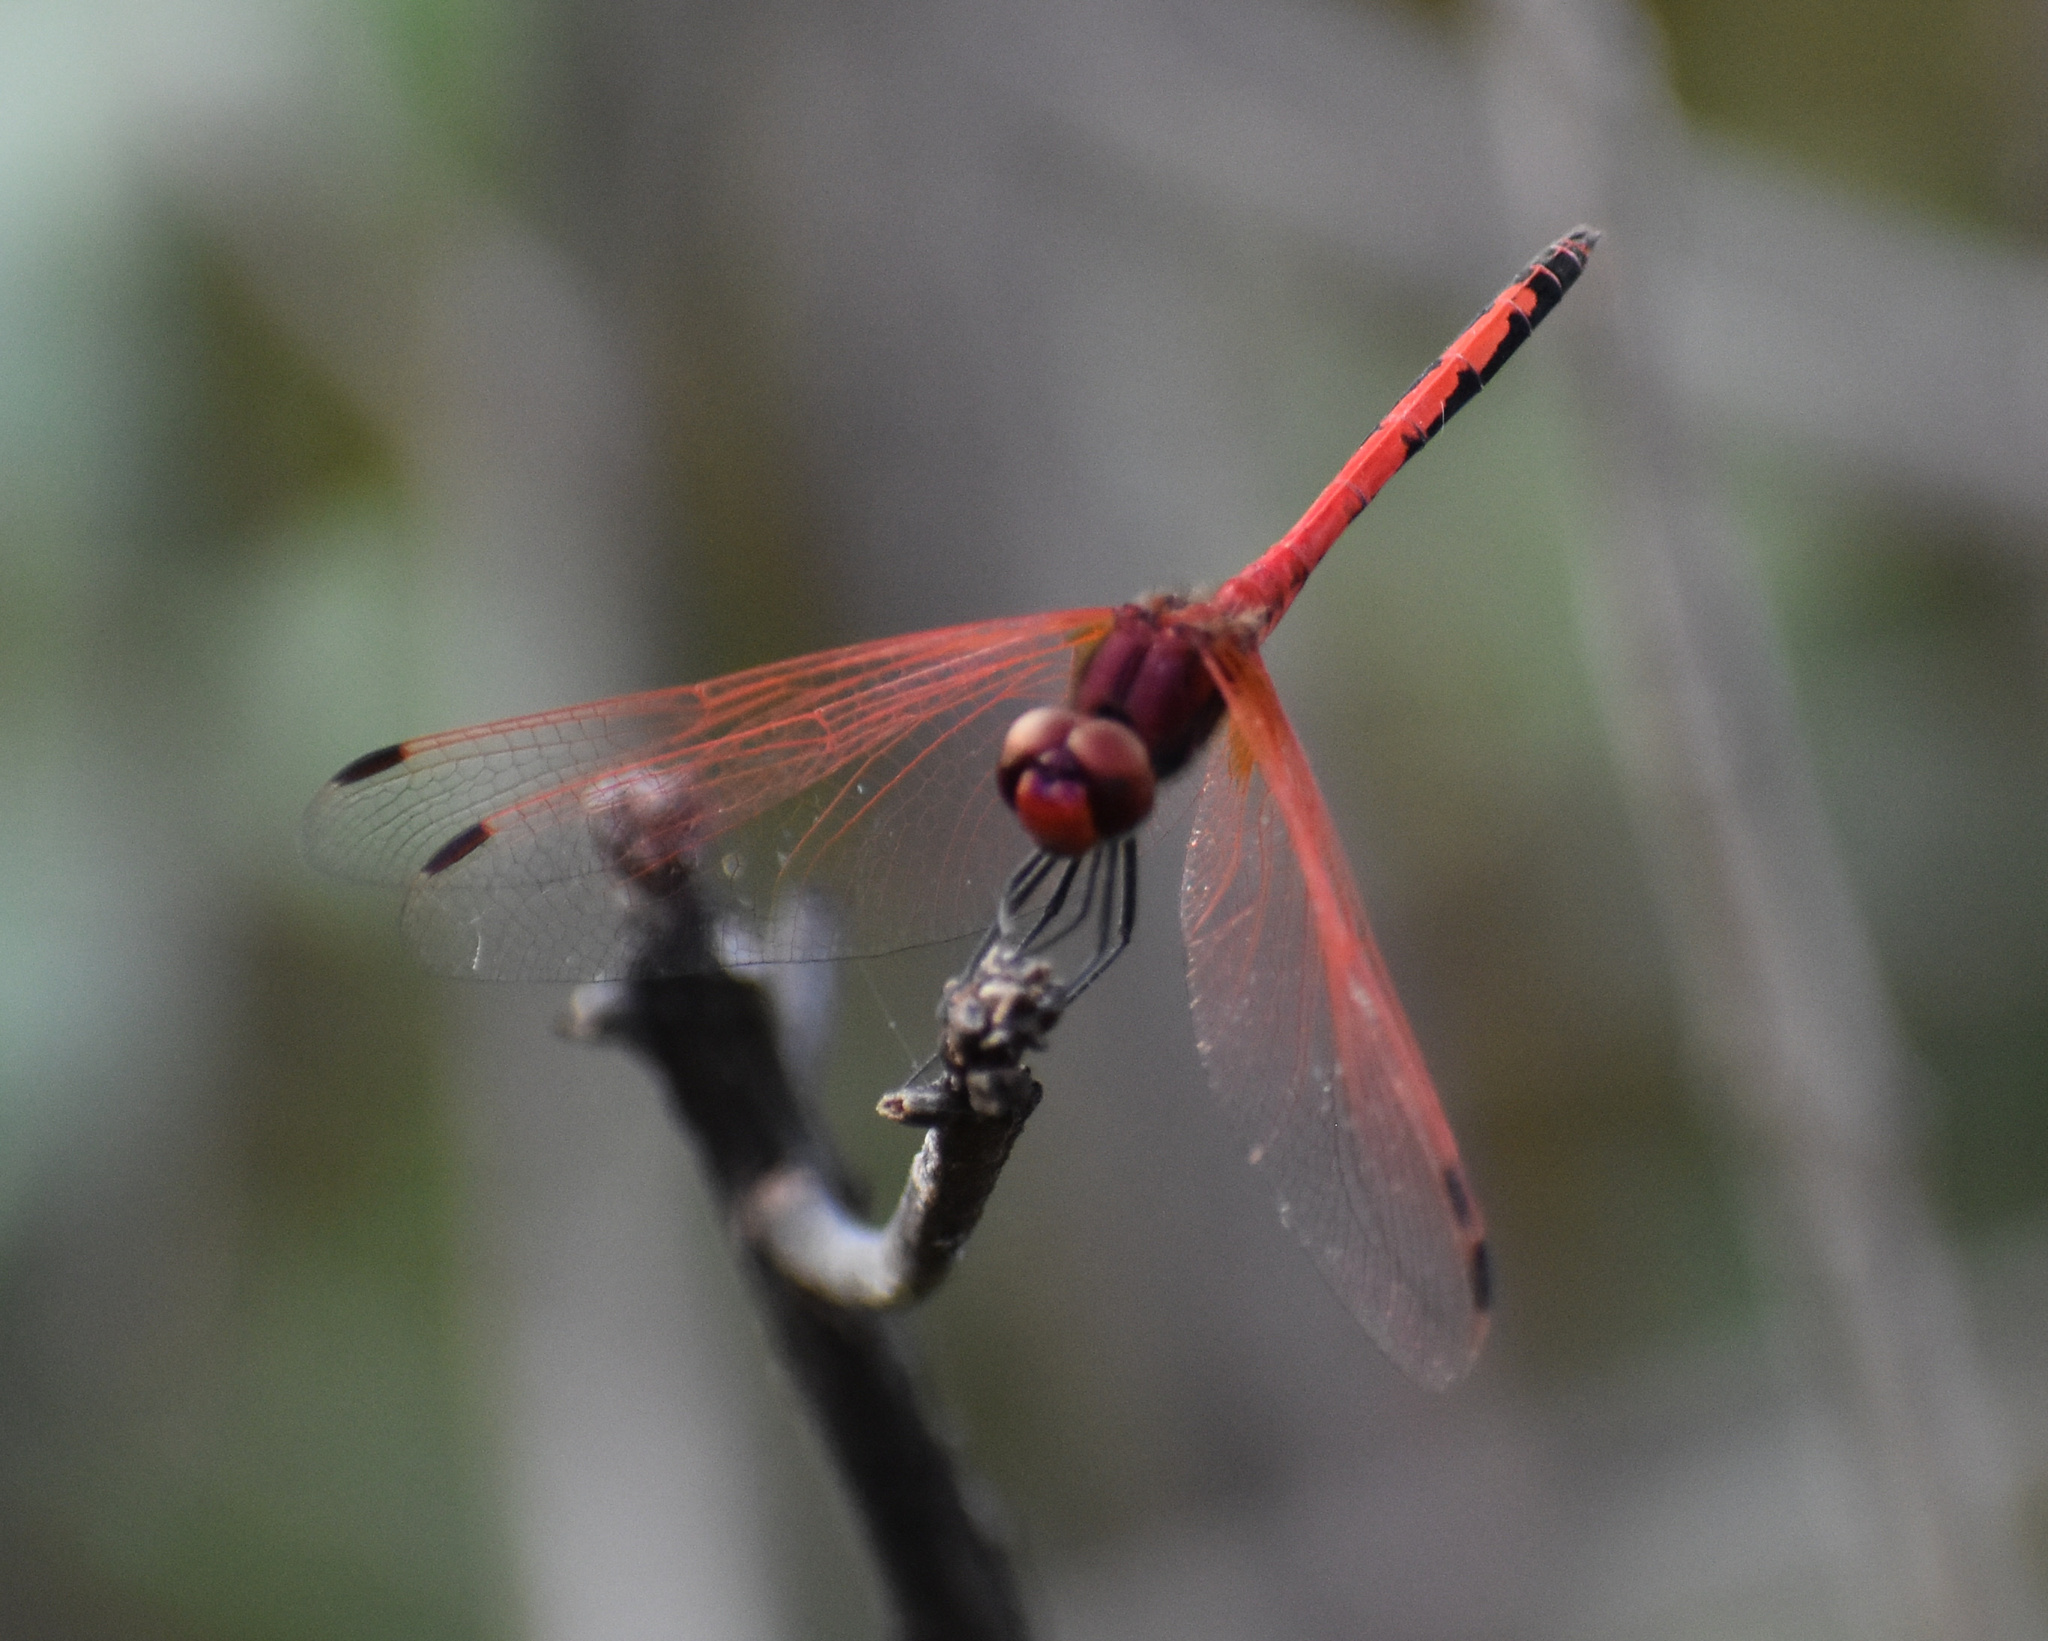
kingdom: Animalia
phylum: Arthropoda
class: Insecta
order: Odonata
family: Libellulidae
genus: Trithemis
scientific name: Trithemis arteriosa
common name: Red-veined dropwing
